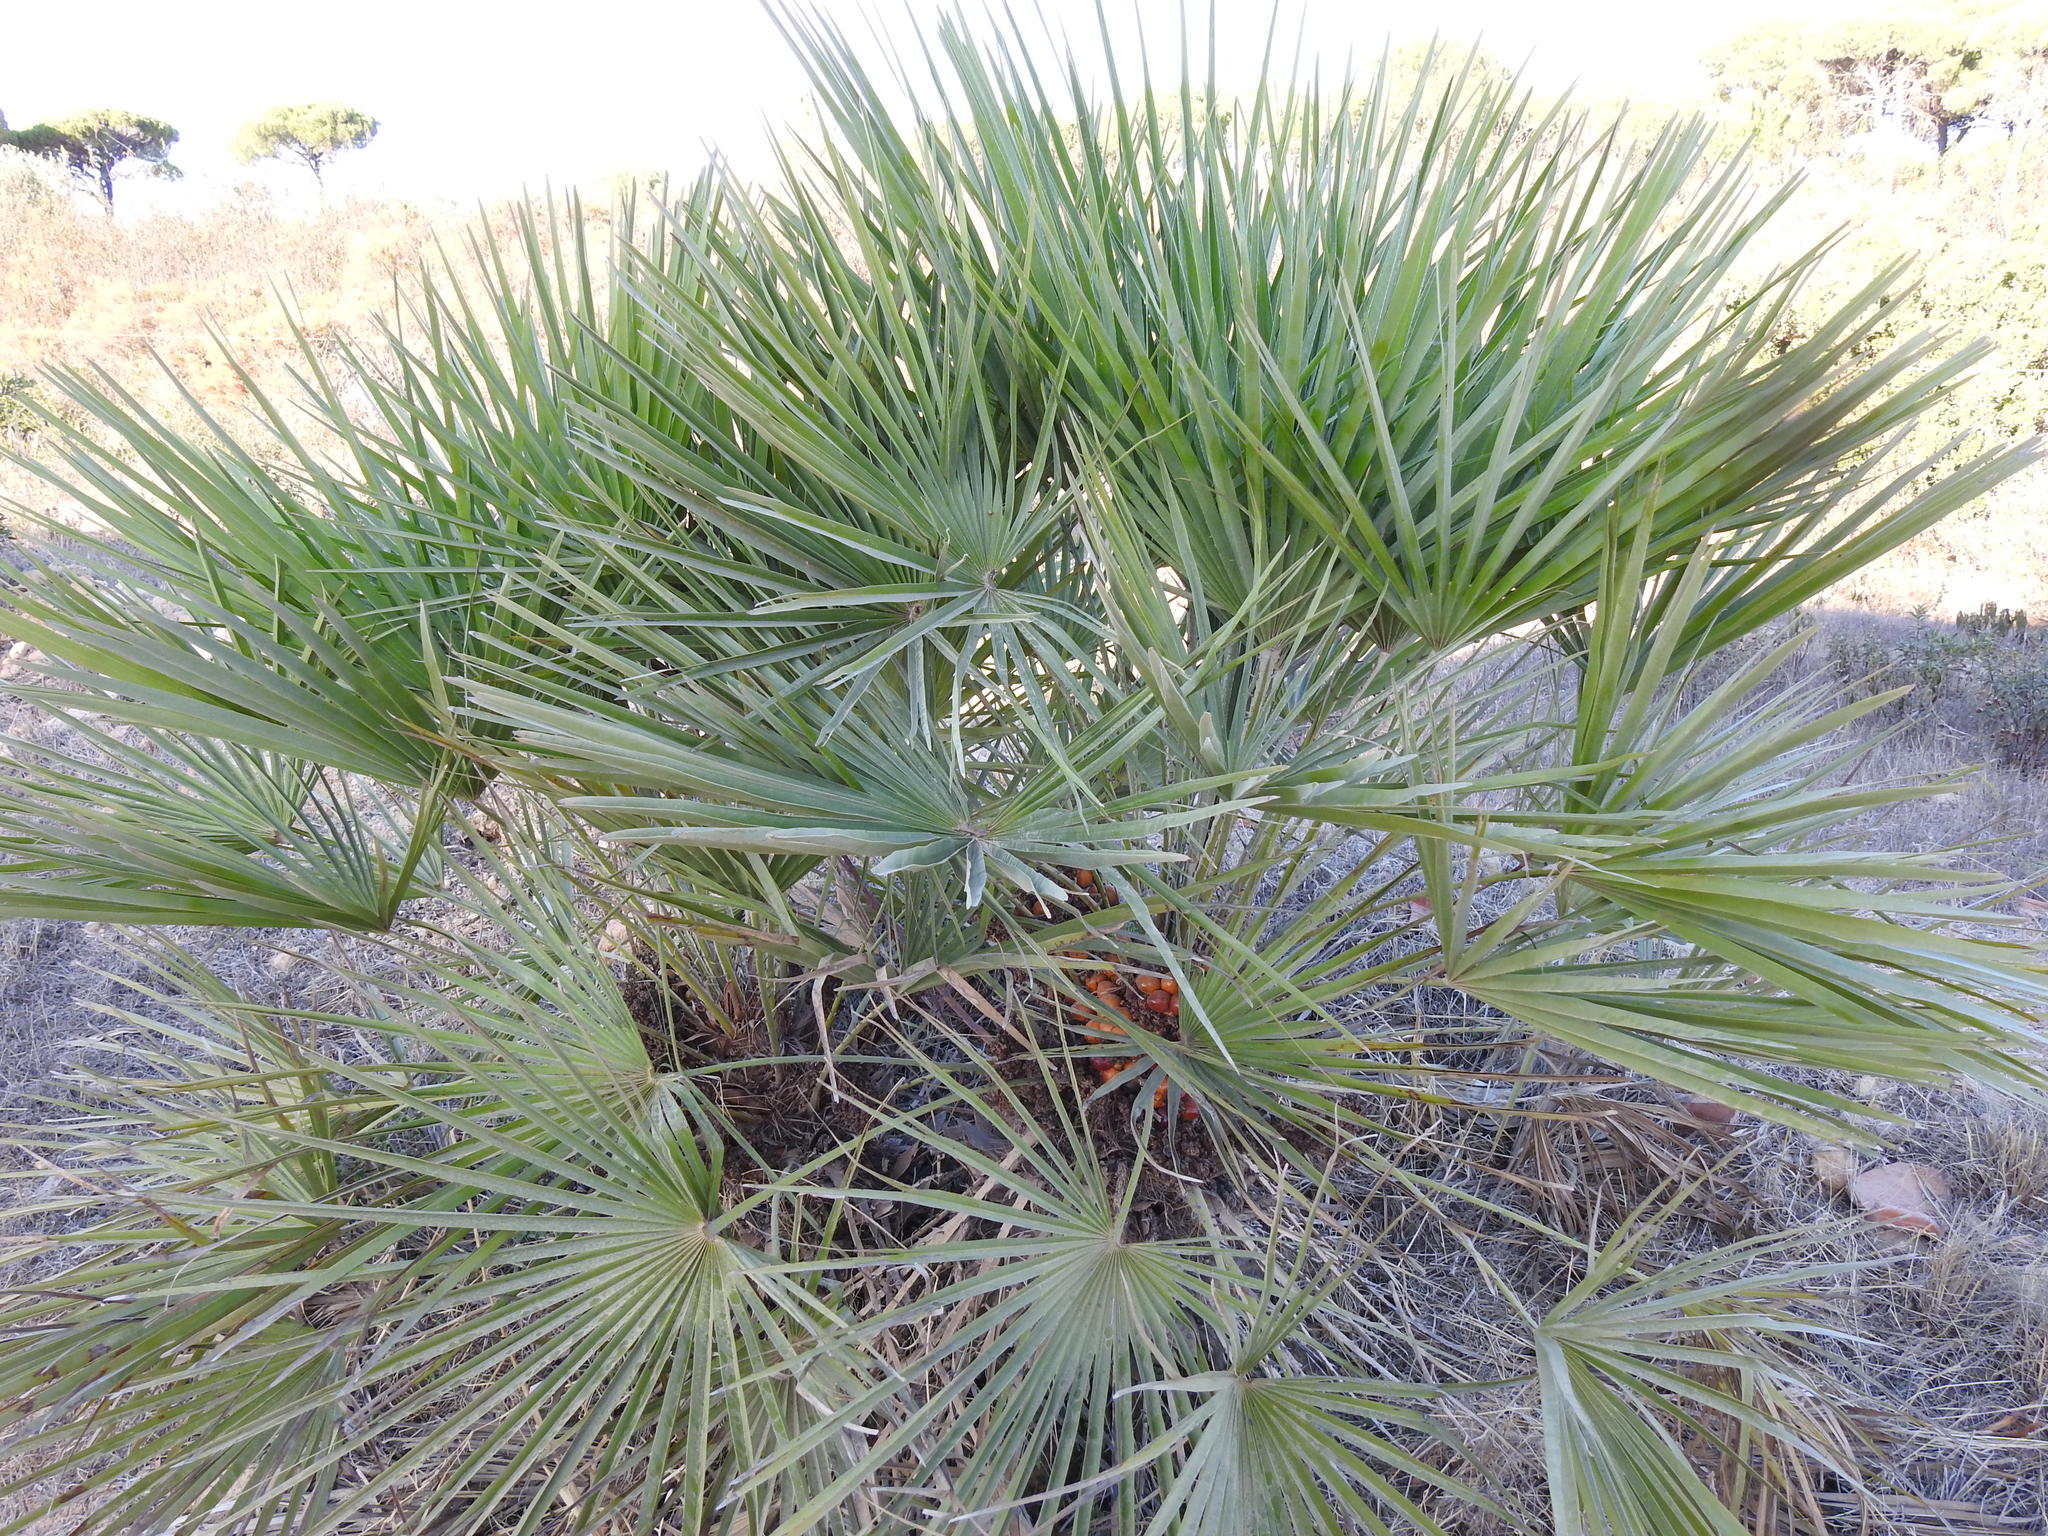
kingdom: Plantae
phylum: Tracheophyta
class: Liliopsida
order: Arecales
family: Arecaceae
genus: Chamaerops
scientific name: Chamaerops humilis
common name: Dwarf fan palm
